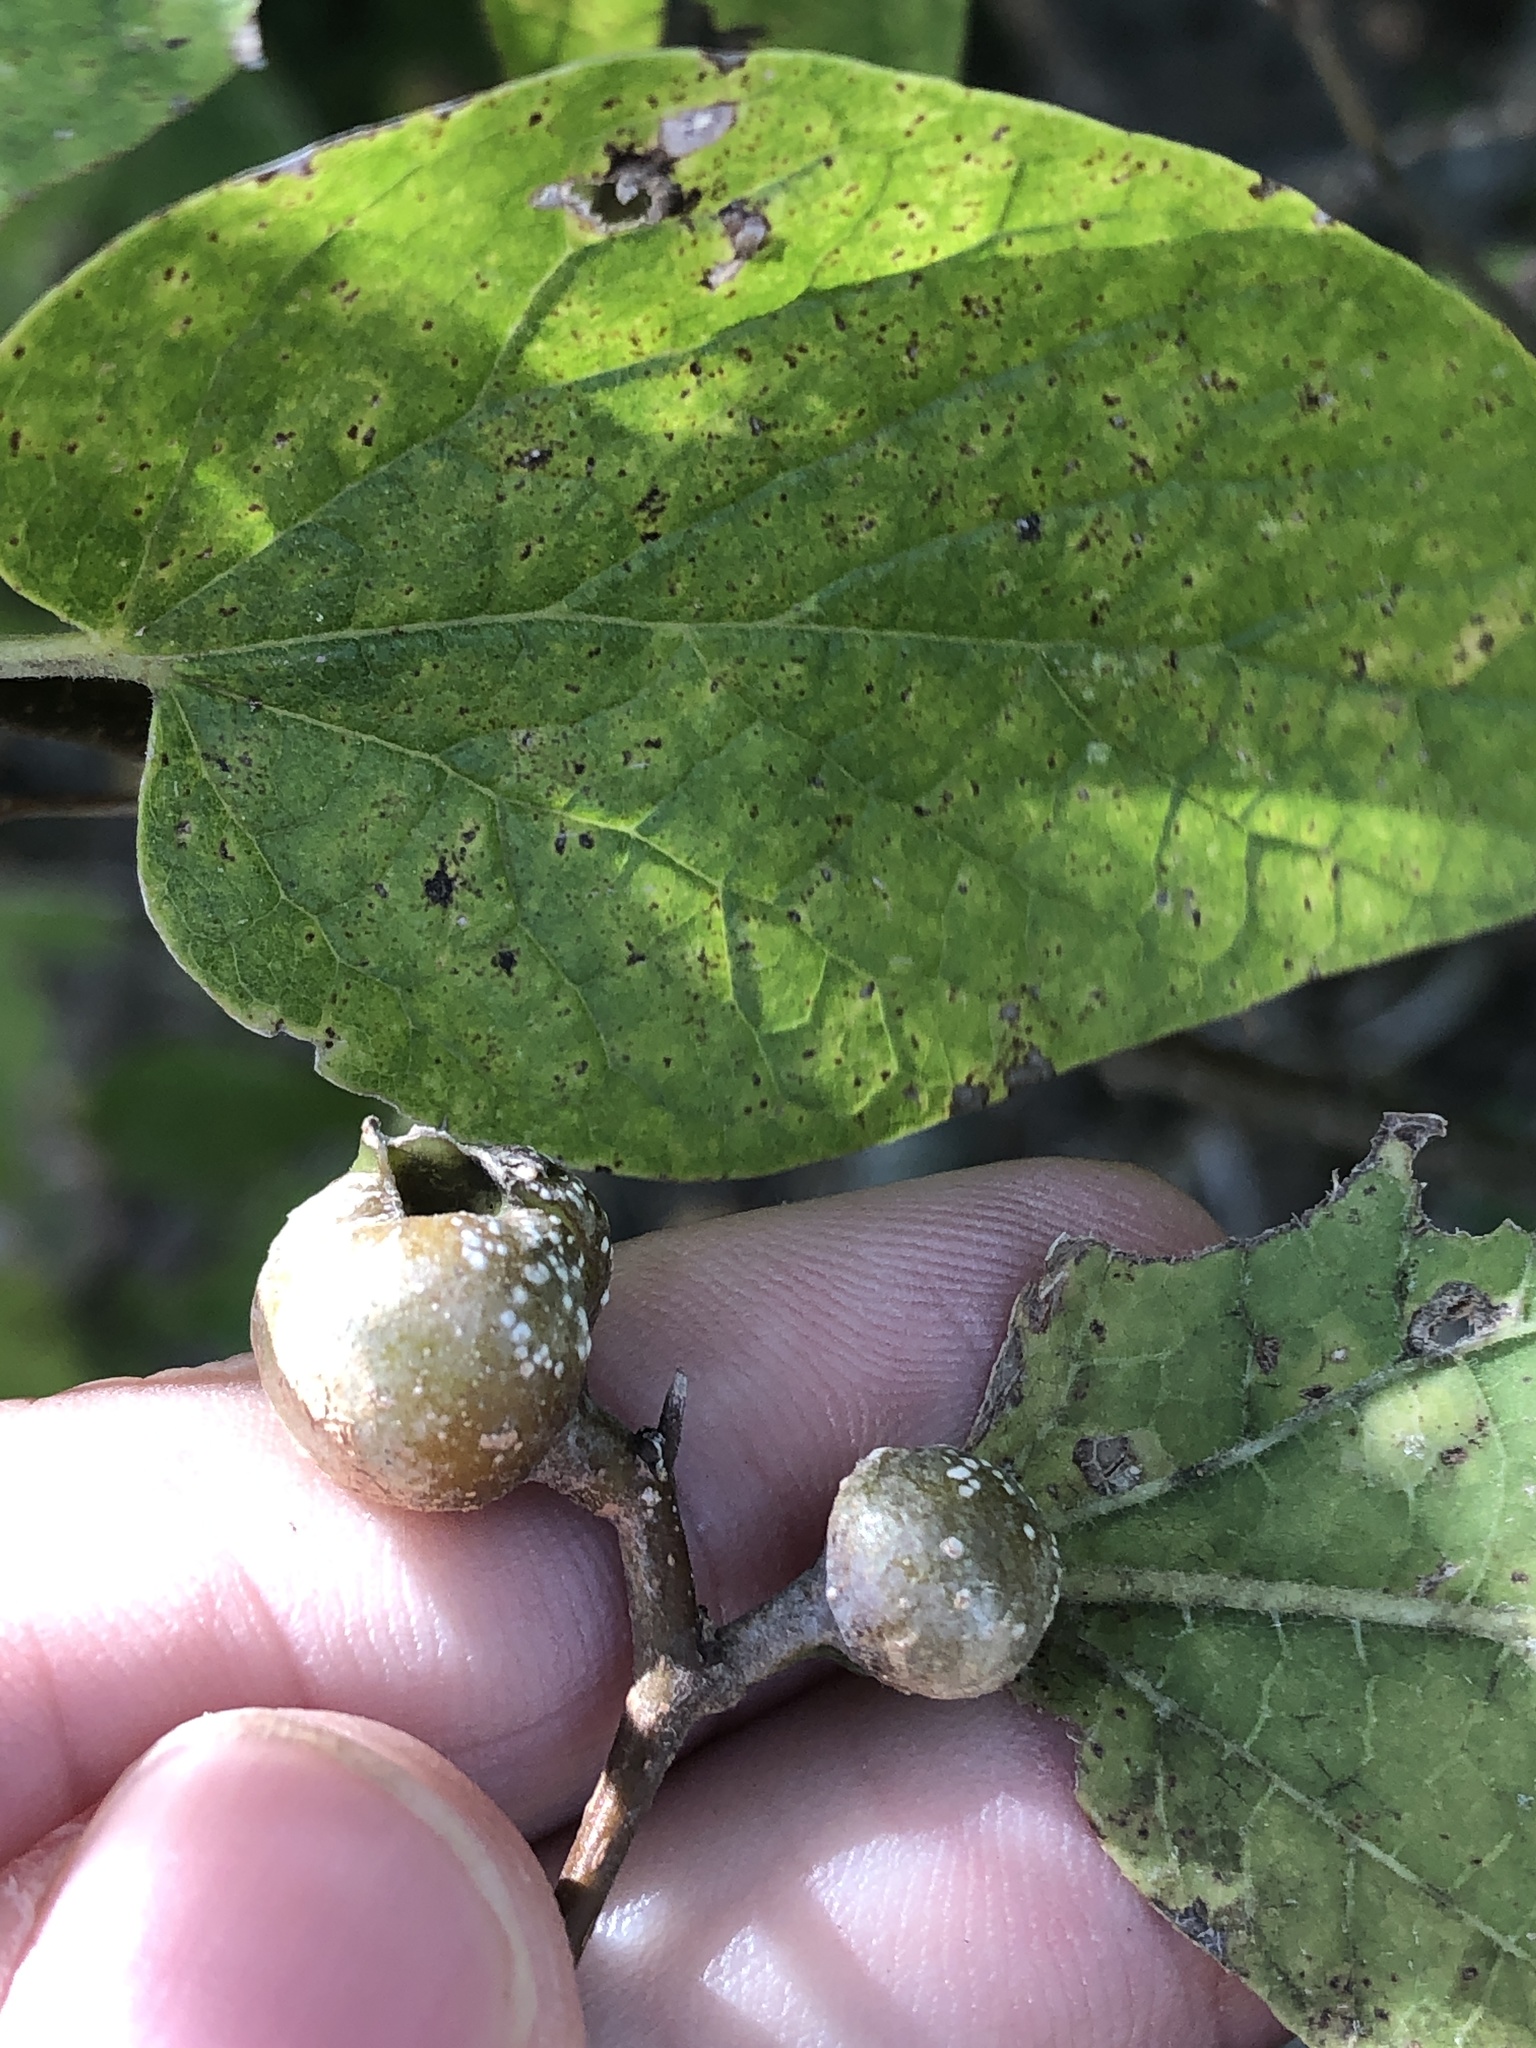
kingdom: Animalia
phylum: Arthropoda
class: Insecta
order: Hemiptera
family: Aphalaridae
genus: Pachypsylla
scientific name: Pachypsylla venusta
